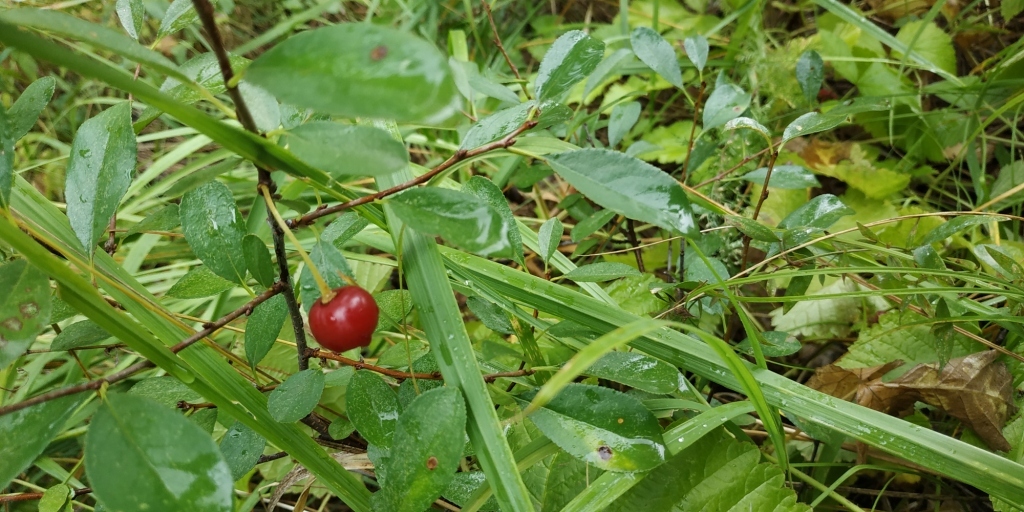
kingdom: Plantae
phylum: Tracheophyta
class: Magnoliopsida
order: Rosales
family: Rosaceae
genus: Prunus
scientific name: Prunus fruticosa
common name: European dwarf cherry
